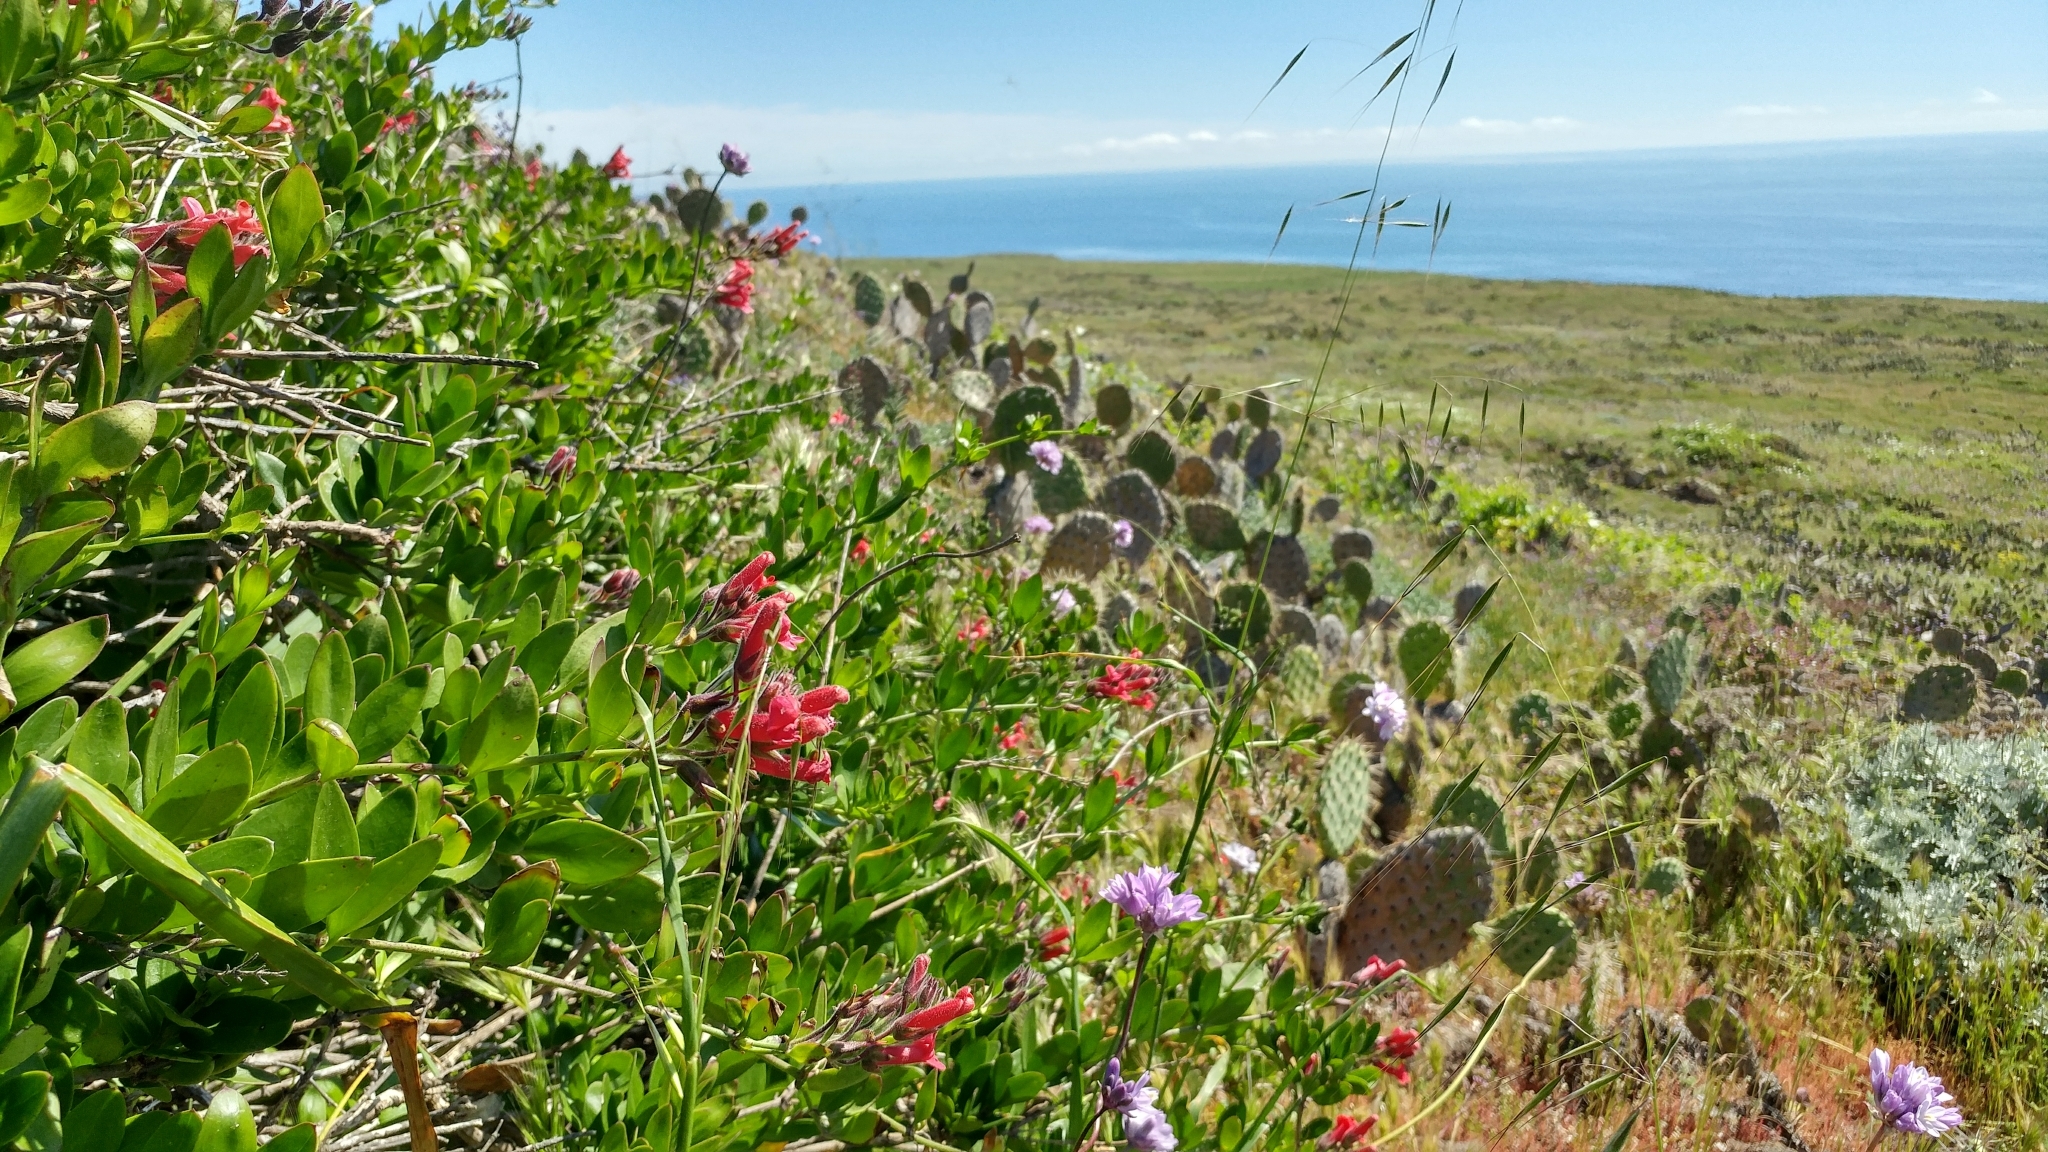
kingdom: Plantae
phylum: Tracheophyta
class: Magnoliopsida
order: Lamiales
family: Plantaginaceae
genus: Gambelia
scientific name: Gambelia speciosa
